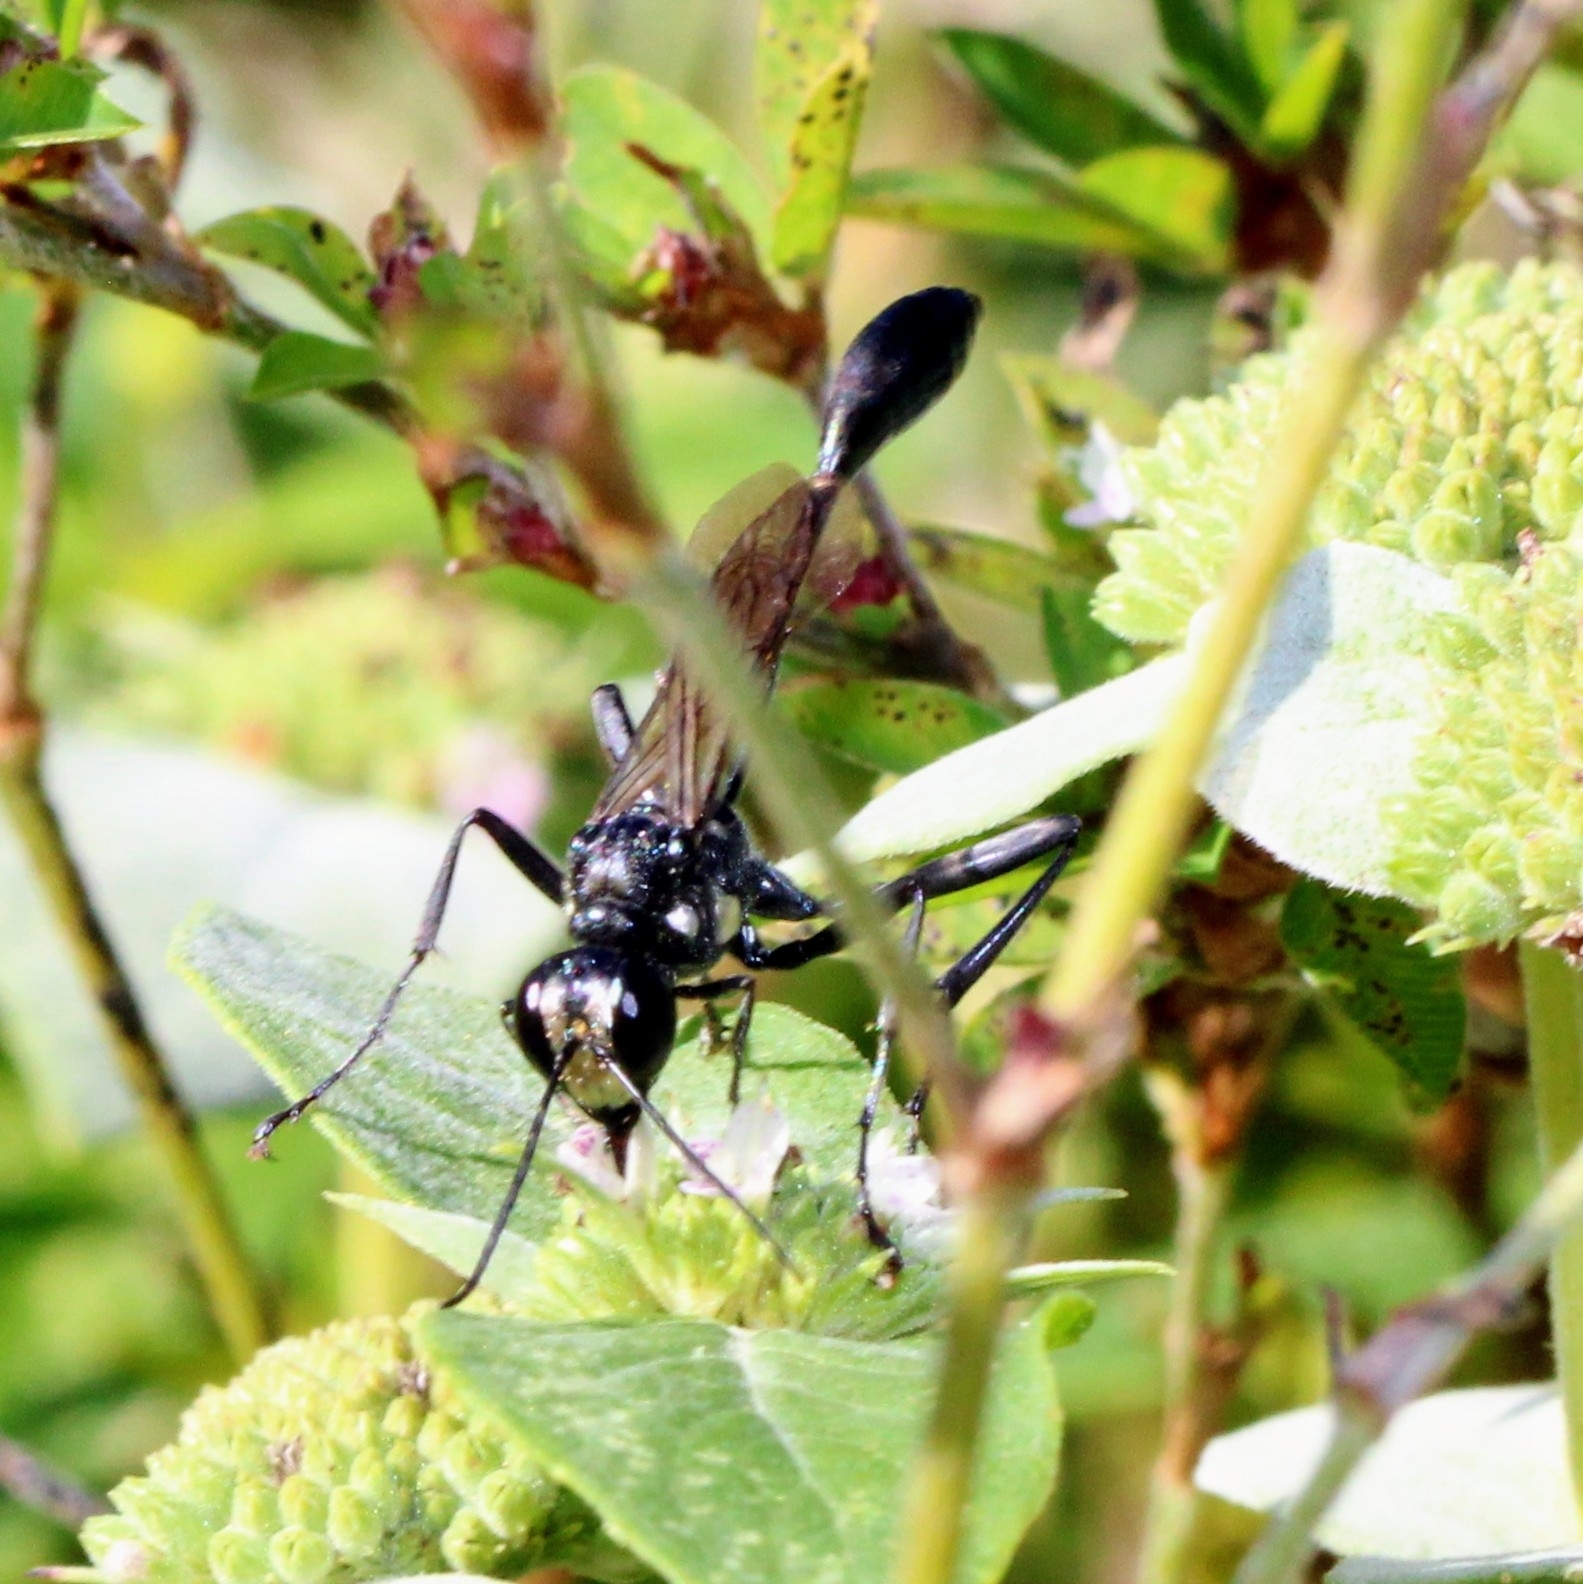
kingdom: Animalia
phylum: Arthropoda
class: Insecta
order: Hymenoptera
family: Sphecidae
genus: Eremnophila
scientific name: Eremnophila aureonotata
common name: Gold-marked thread-waisted wasp
